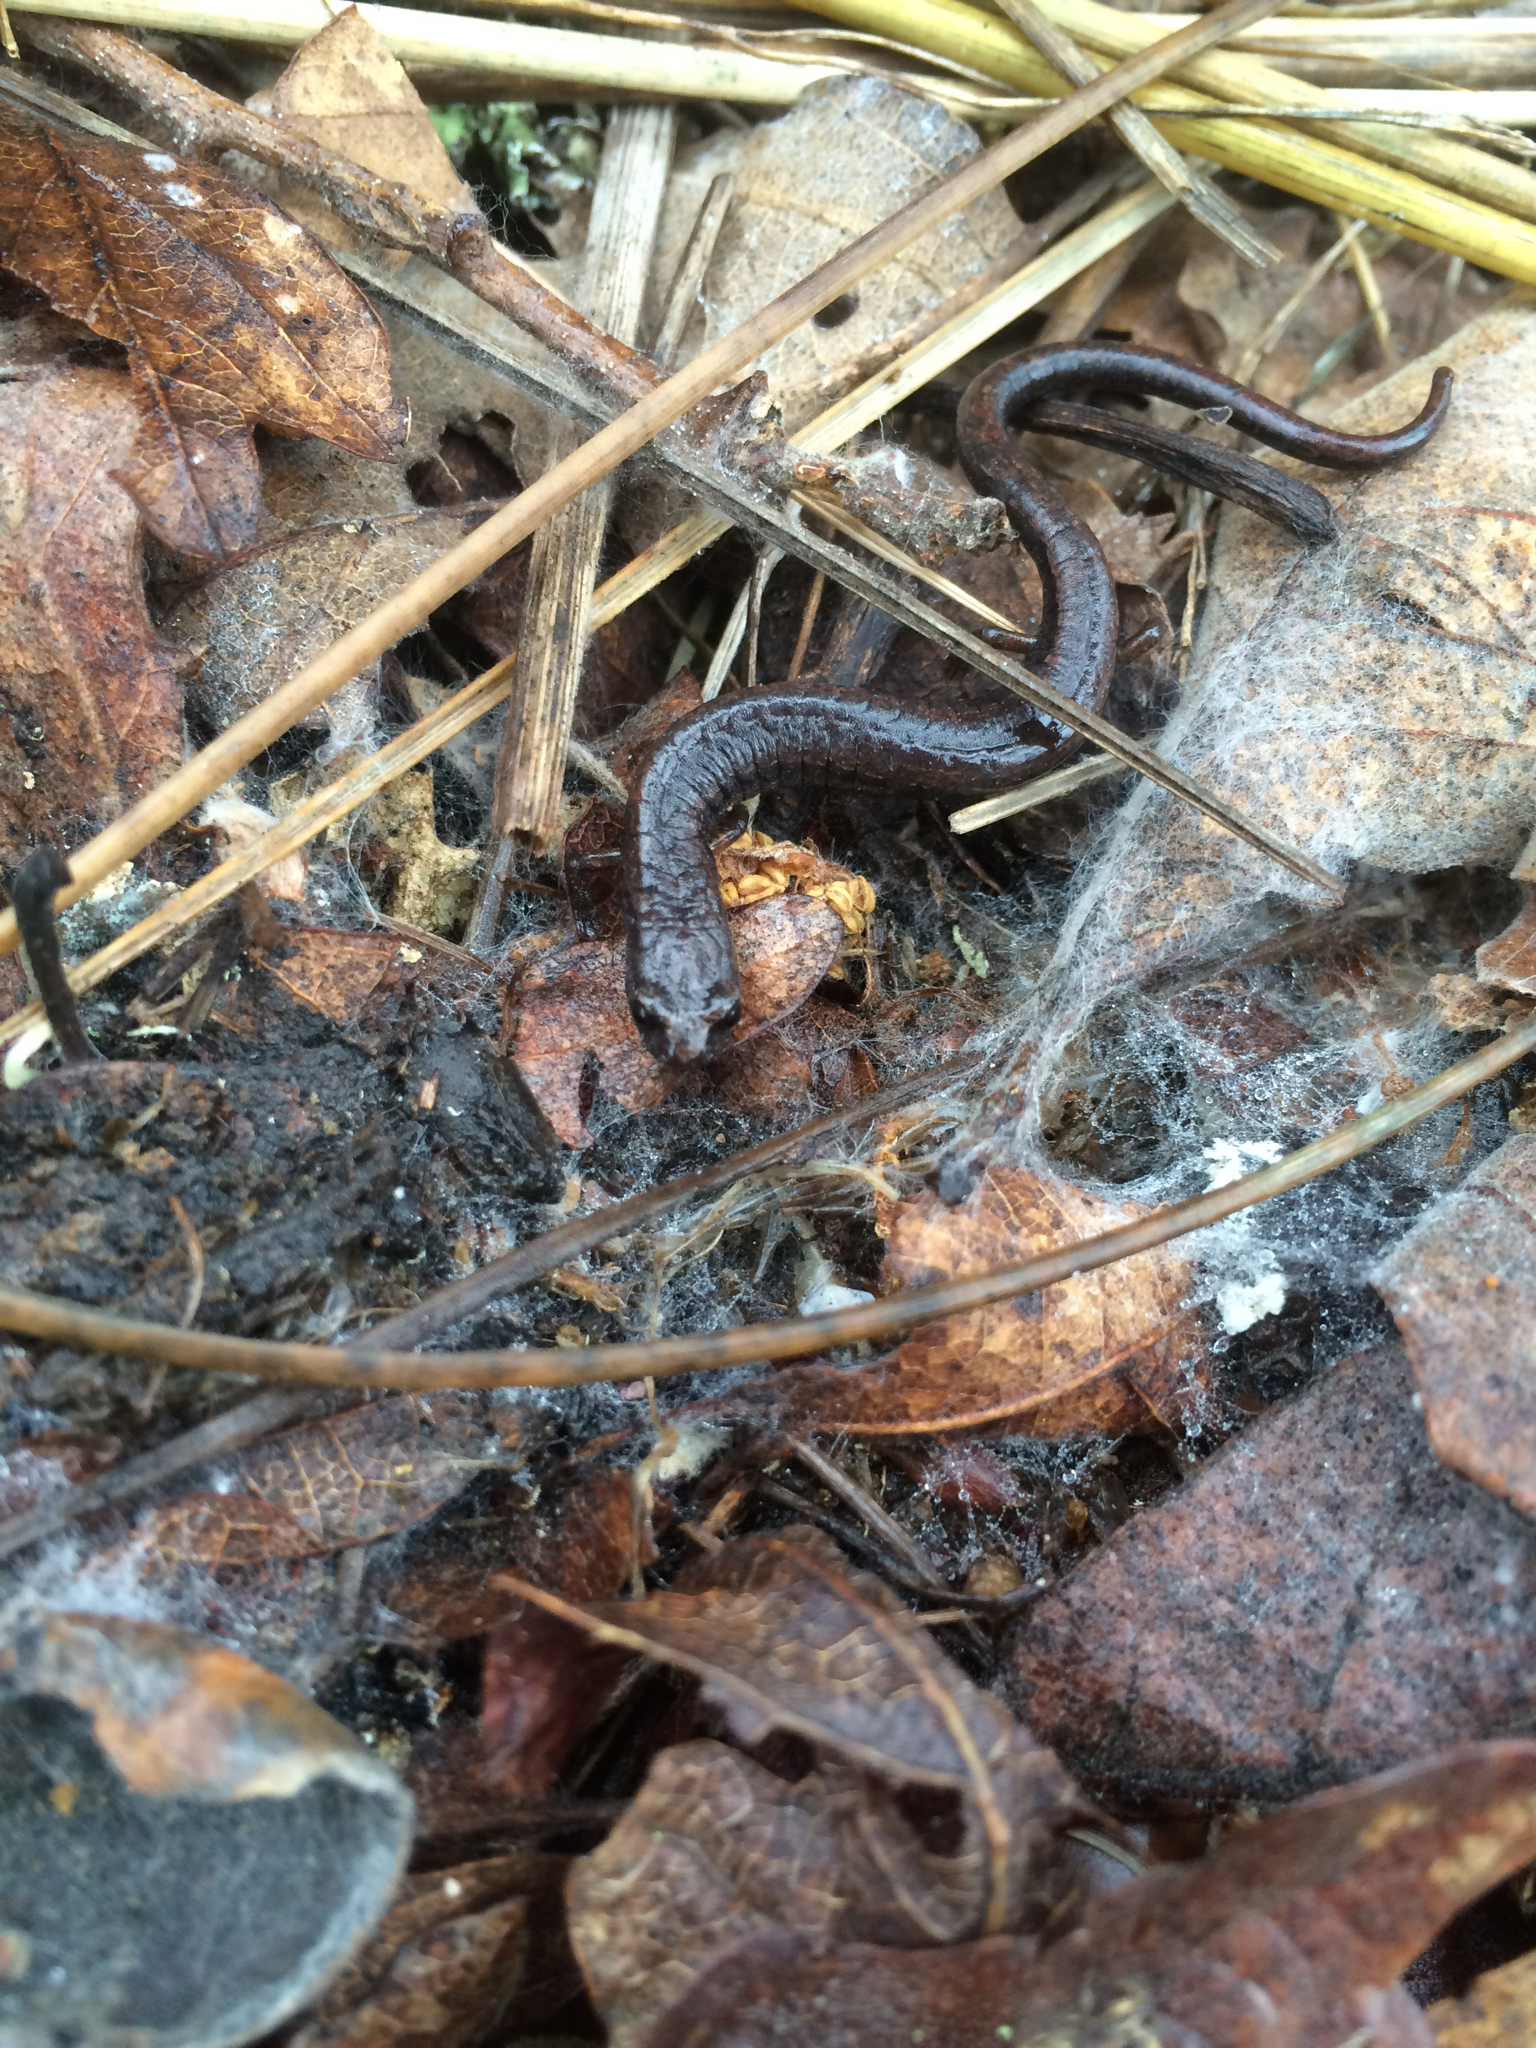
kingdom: Animalia
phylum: Chordata
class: Amphibia
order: Caudata
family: Plethodontidae
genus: Batrachoseps
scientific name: Batrachoseps attenuatus
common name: California slender salamander
